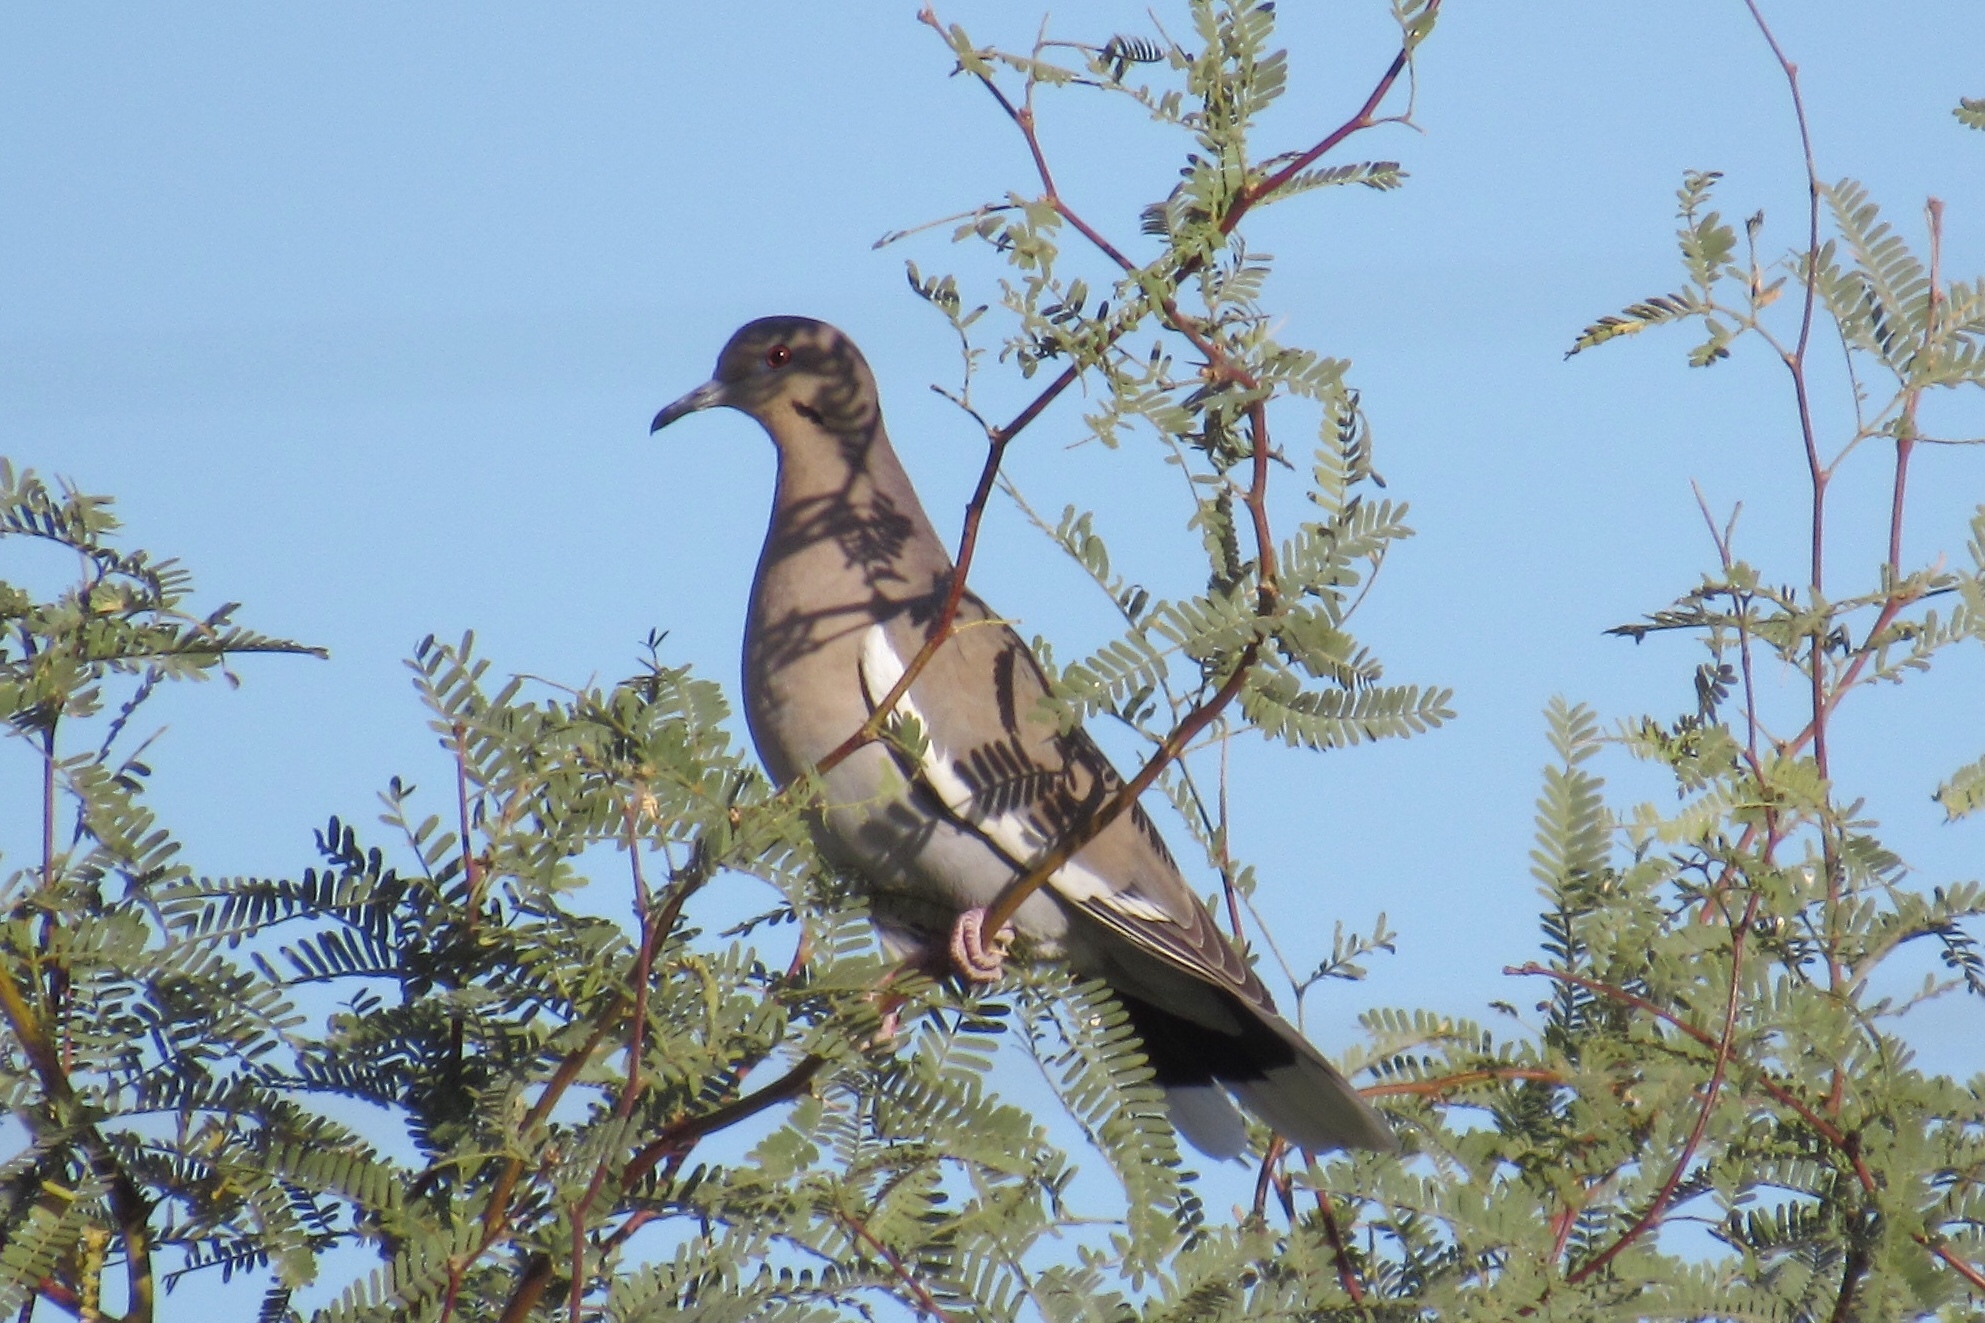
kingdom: Animalia
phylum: Chordata
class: Aves
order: Columbiformes
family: Columbidae
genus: Zenaida
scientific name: Zenaida asiatica
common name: White-winged dove
